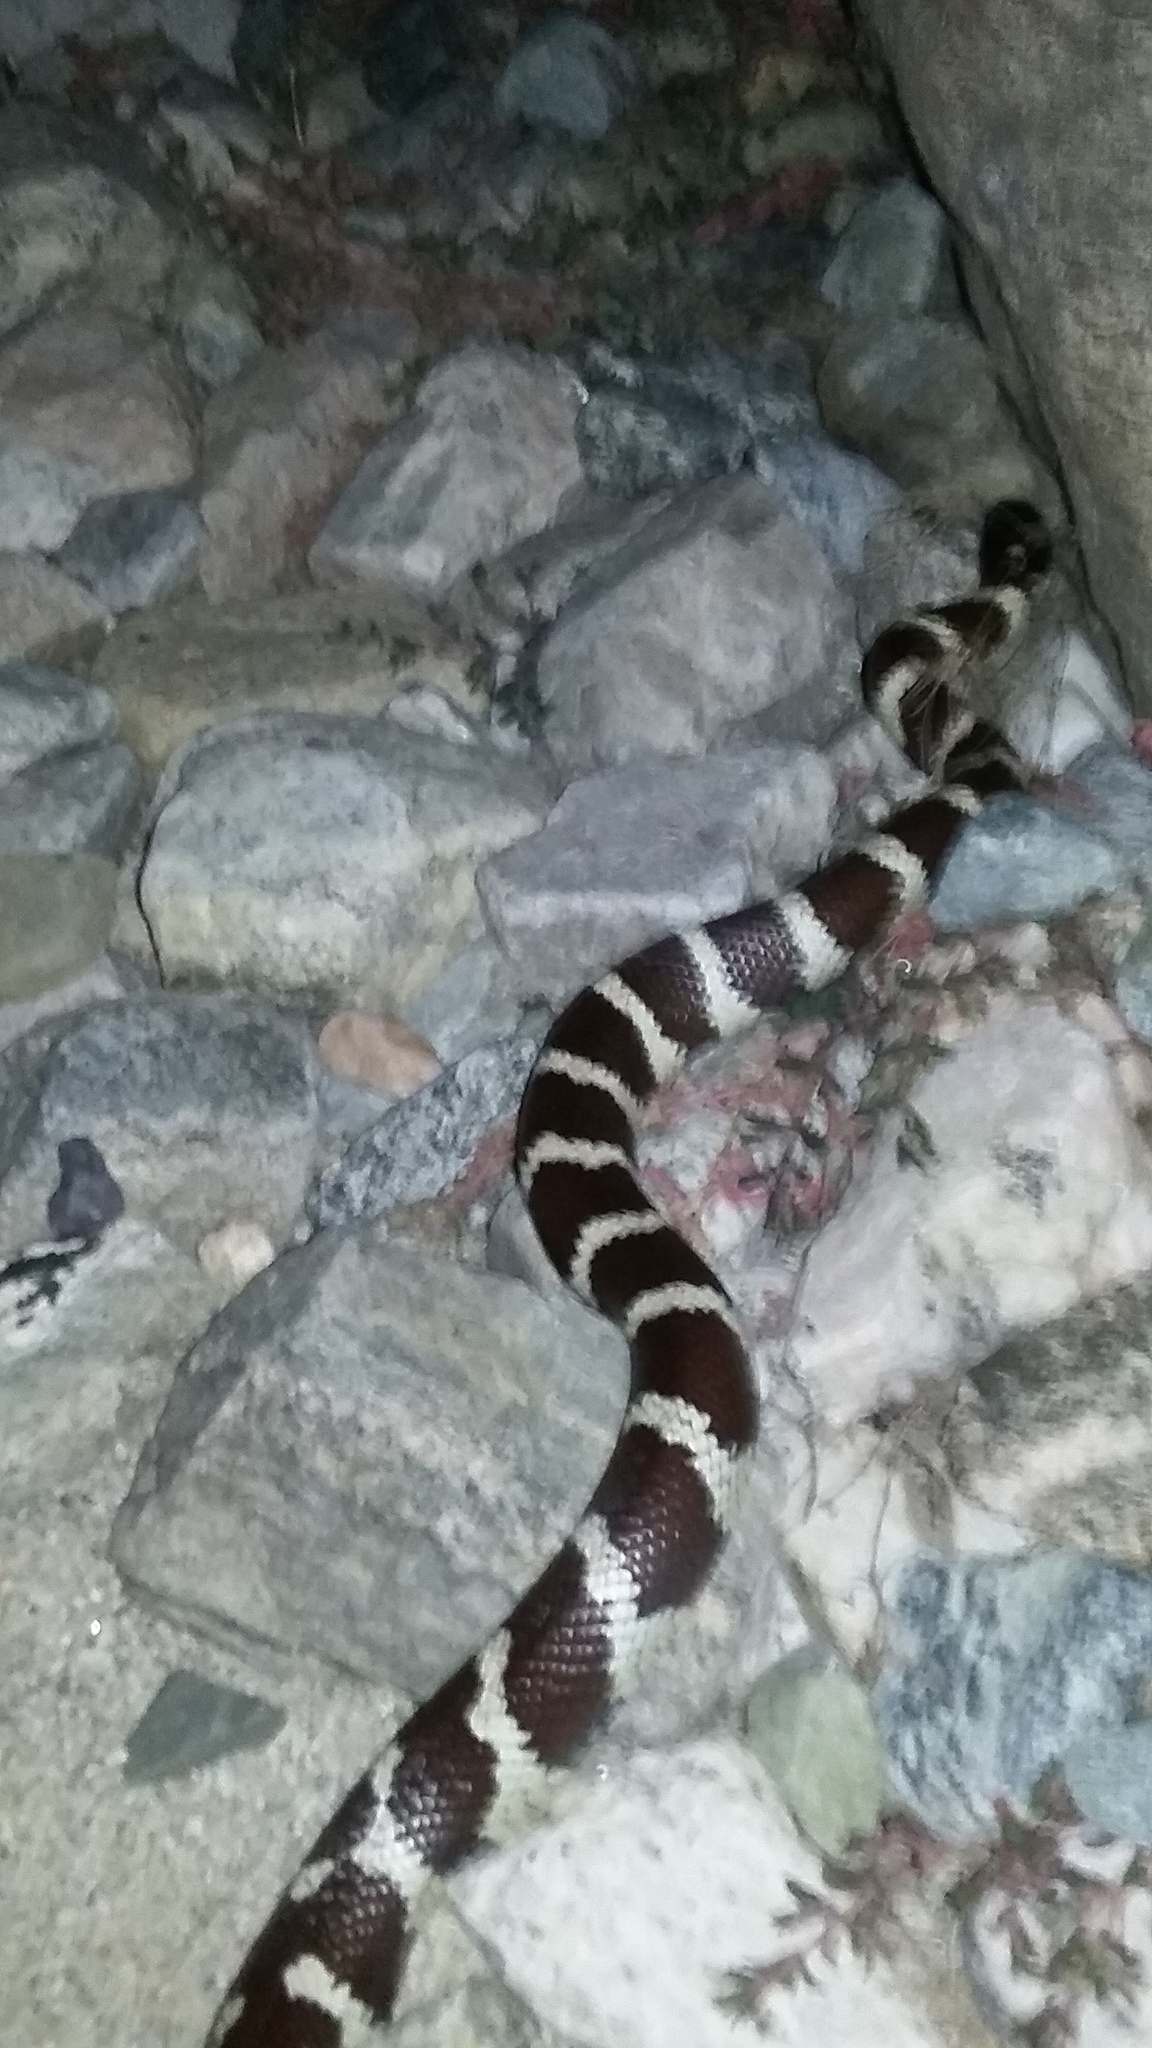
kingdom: Animalia
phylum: Chordata
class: Squamata
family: Colubridae
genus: Lampropeltis
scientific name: Lampropeltis californiae
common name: California kingsnake
